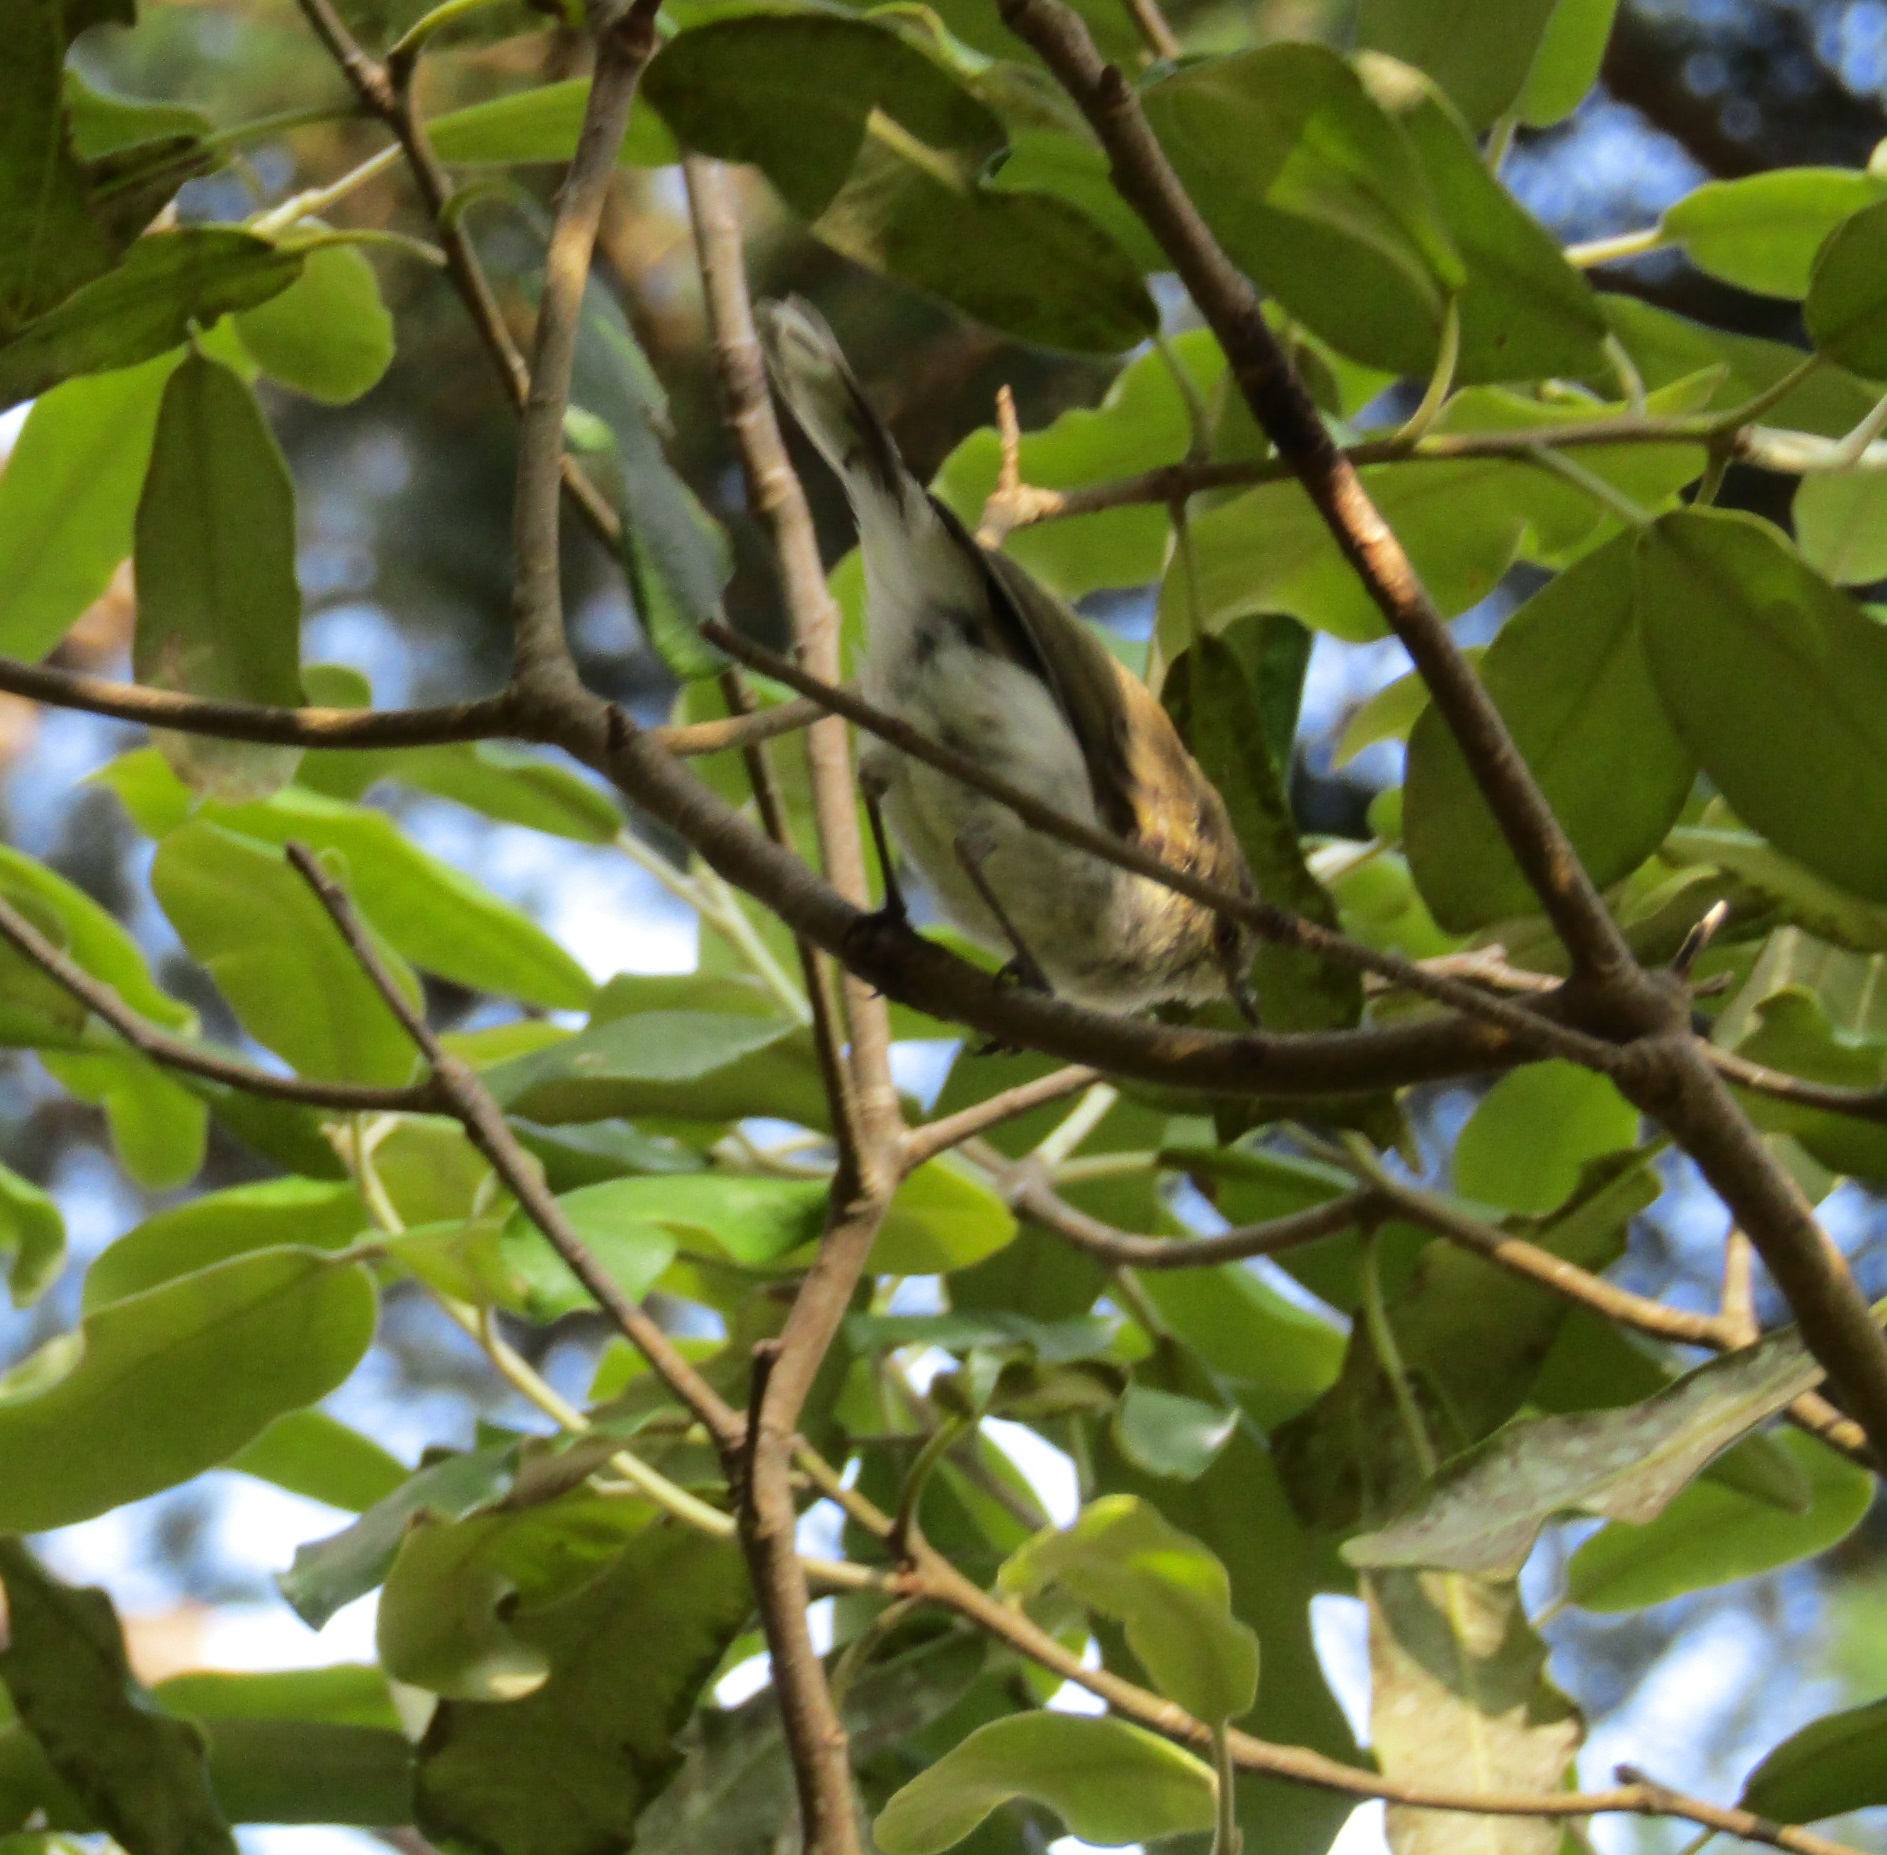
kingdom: Animalia
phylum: Chordata
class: Aves
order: Passeriformes
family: Acanthizidae
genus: Gerygone
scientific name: Gerygone igata
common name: Grey gerygone
